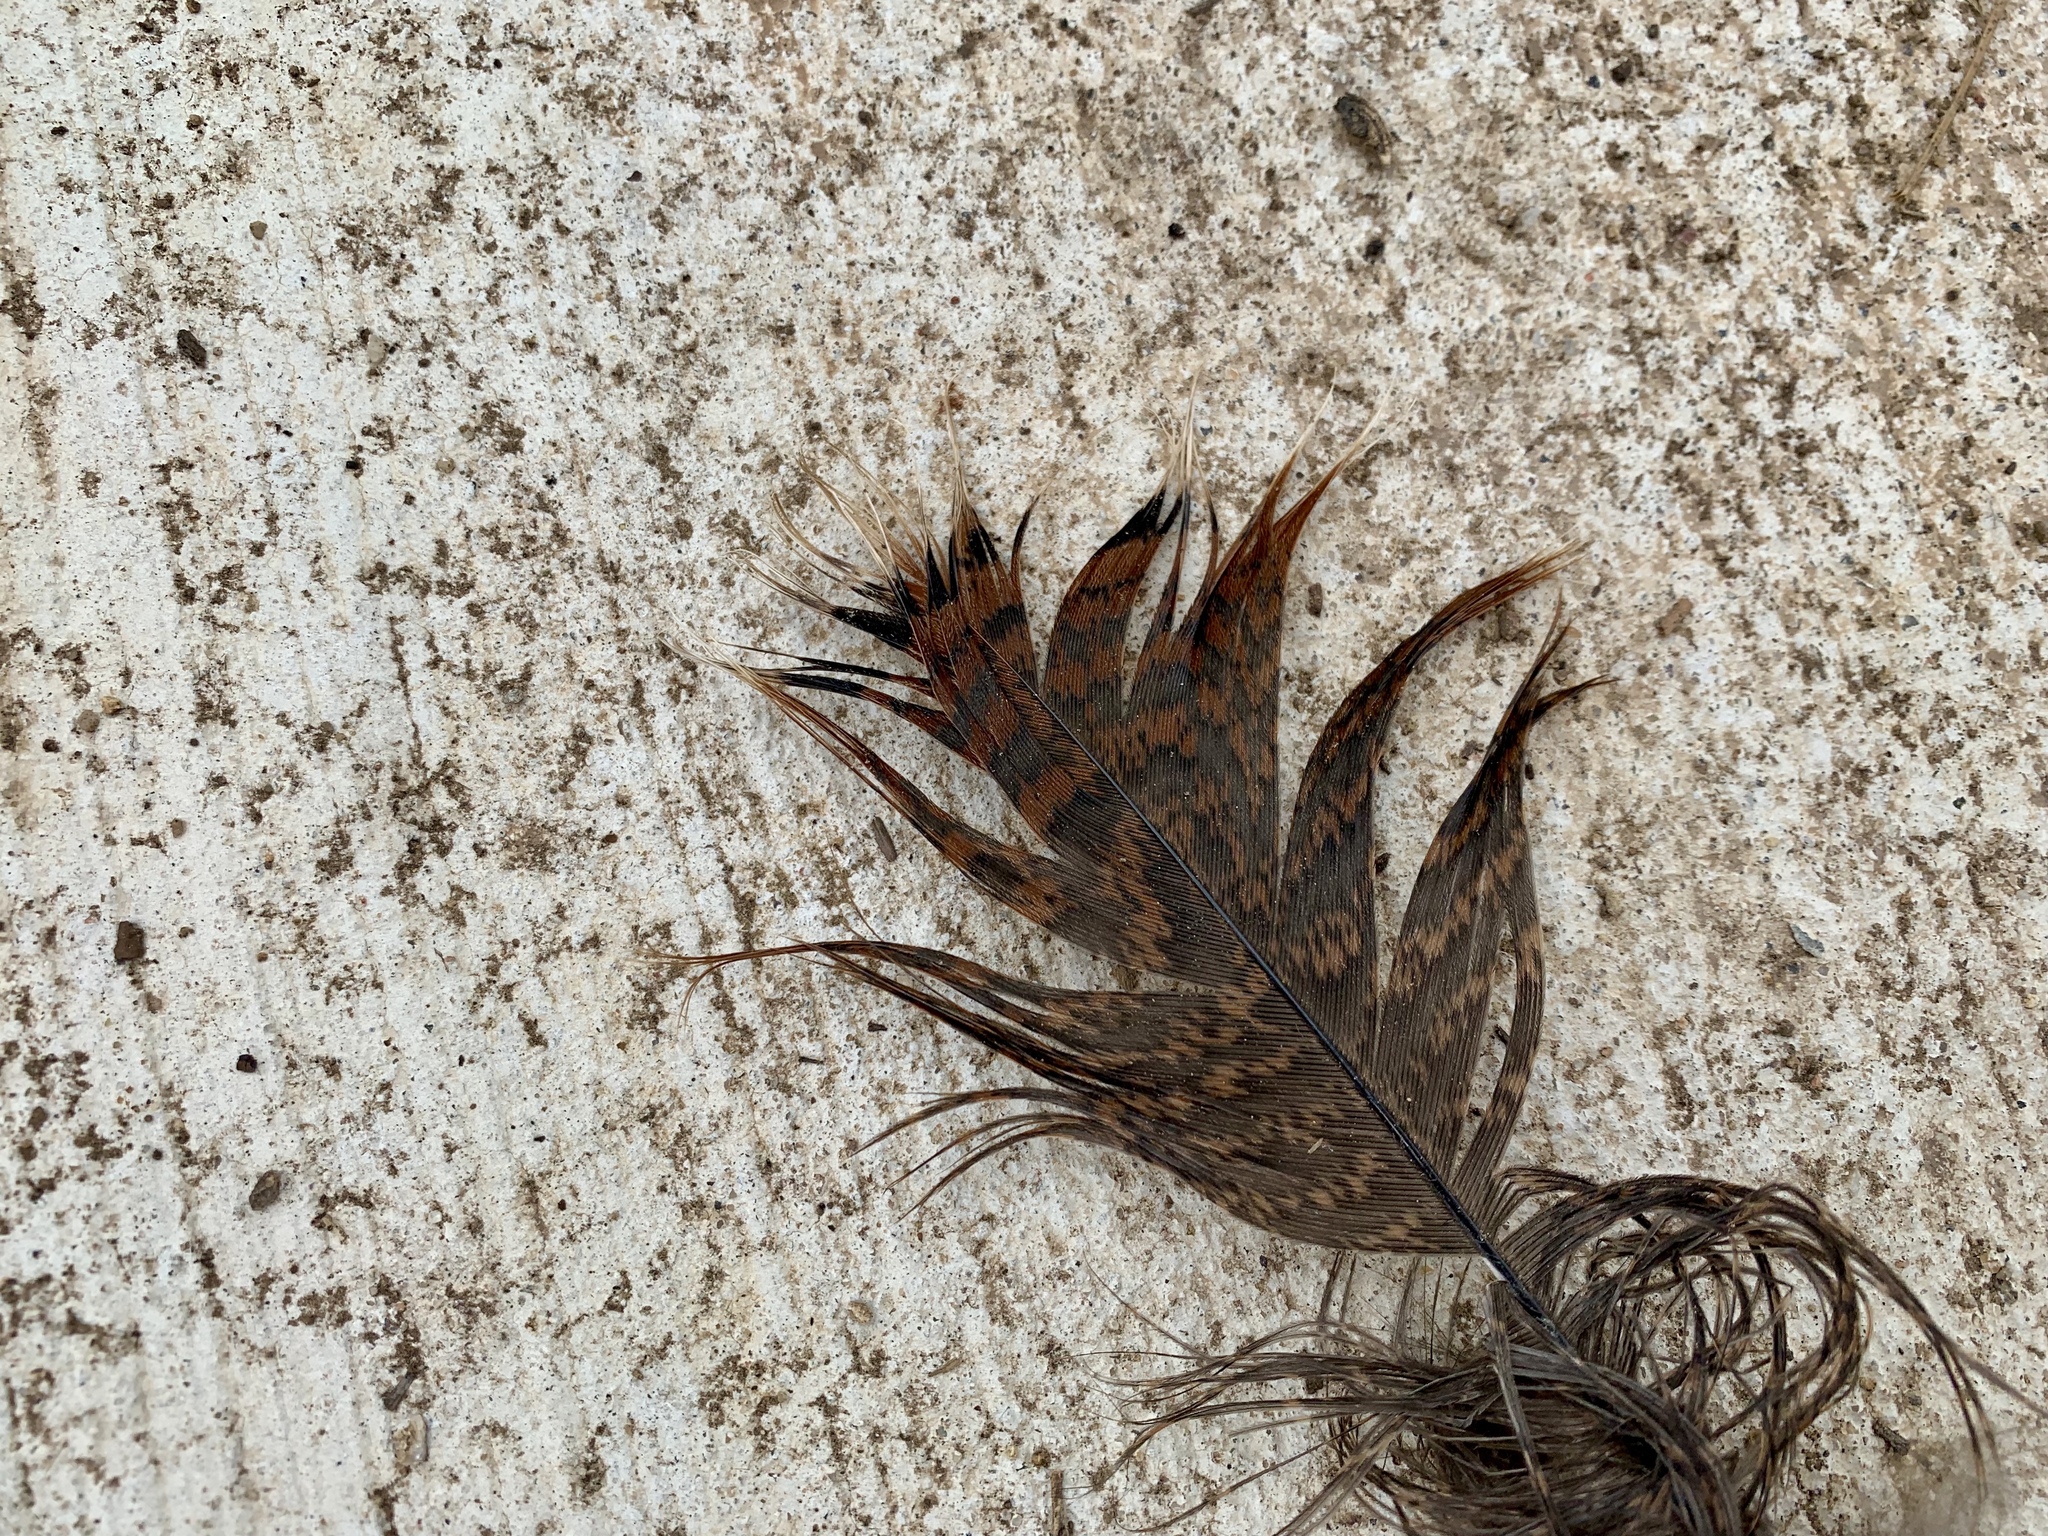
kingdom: Animalia
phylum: Chordata
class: Aves
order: Galliformes
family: Phasianidae
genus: Meleagris
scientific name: Meleagris gallopavo
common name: Wild turkey
